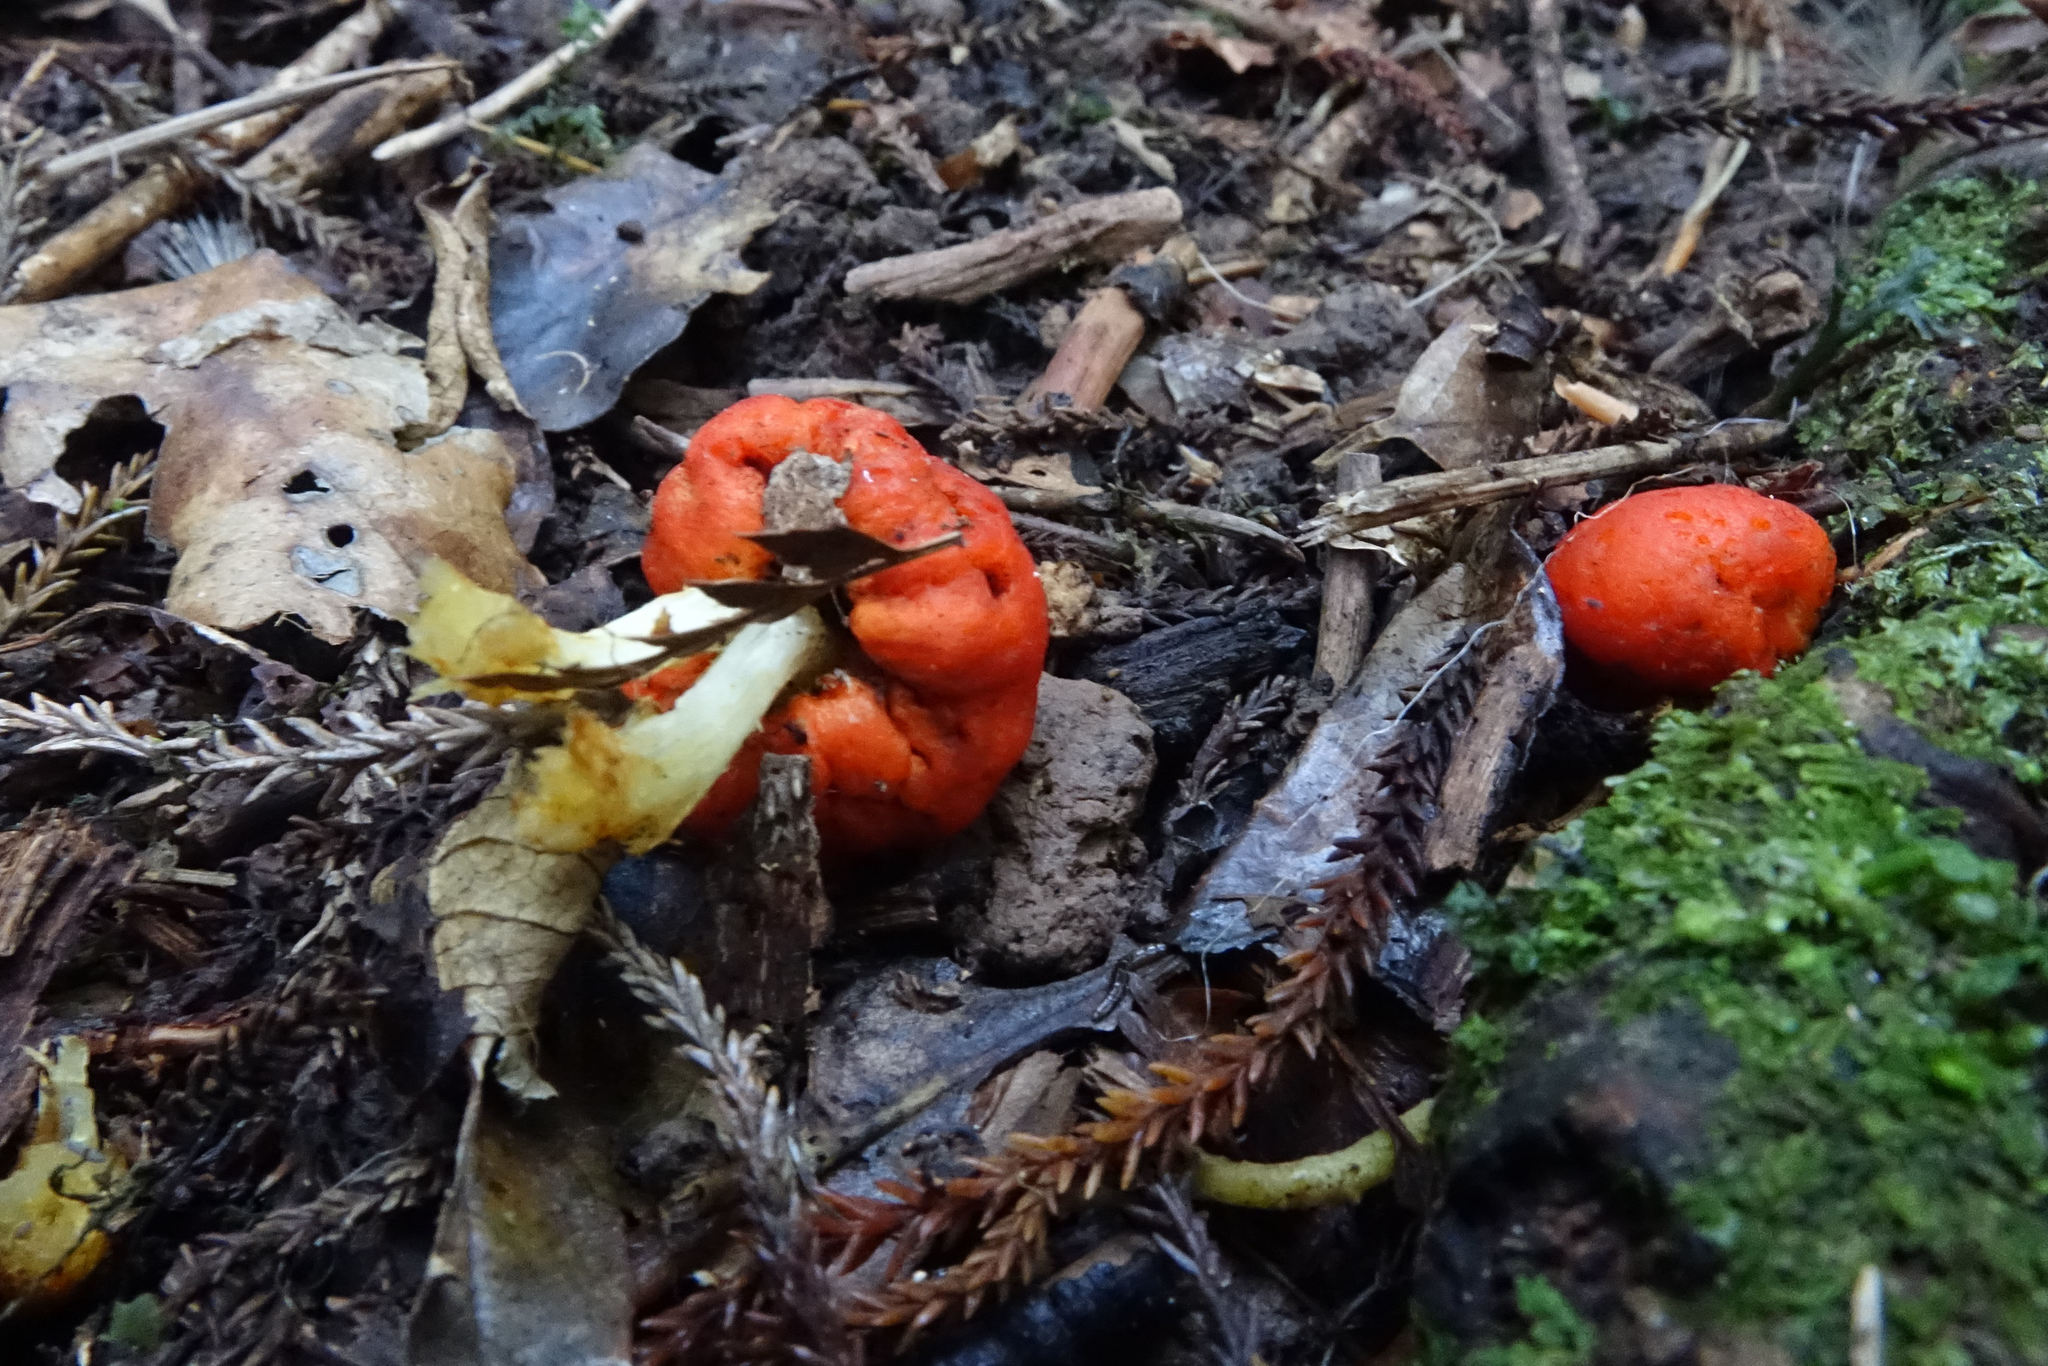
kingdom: Fungi
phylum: Basidiomycota
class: Agaricomycetes
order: Agaricales
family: Strophariaceae
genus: Leratiomyces
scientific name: Leratiomyces erythrocephalus
